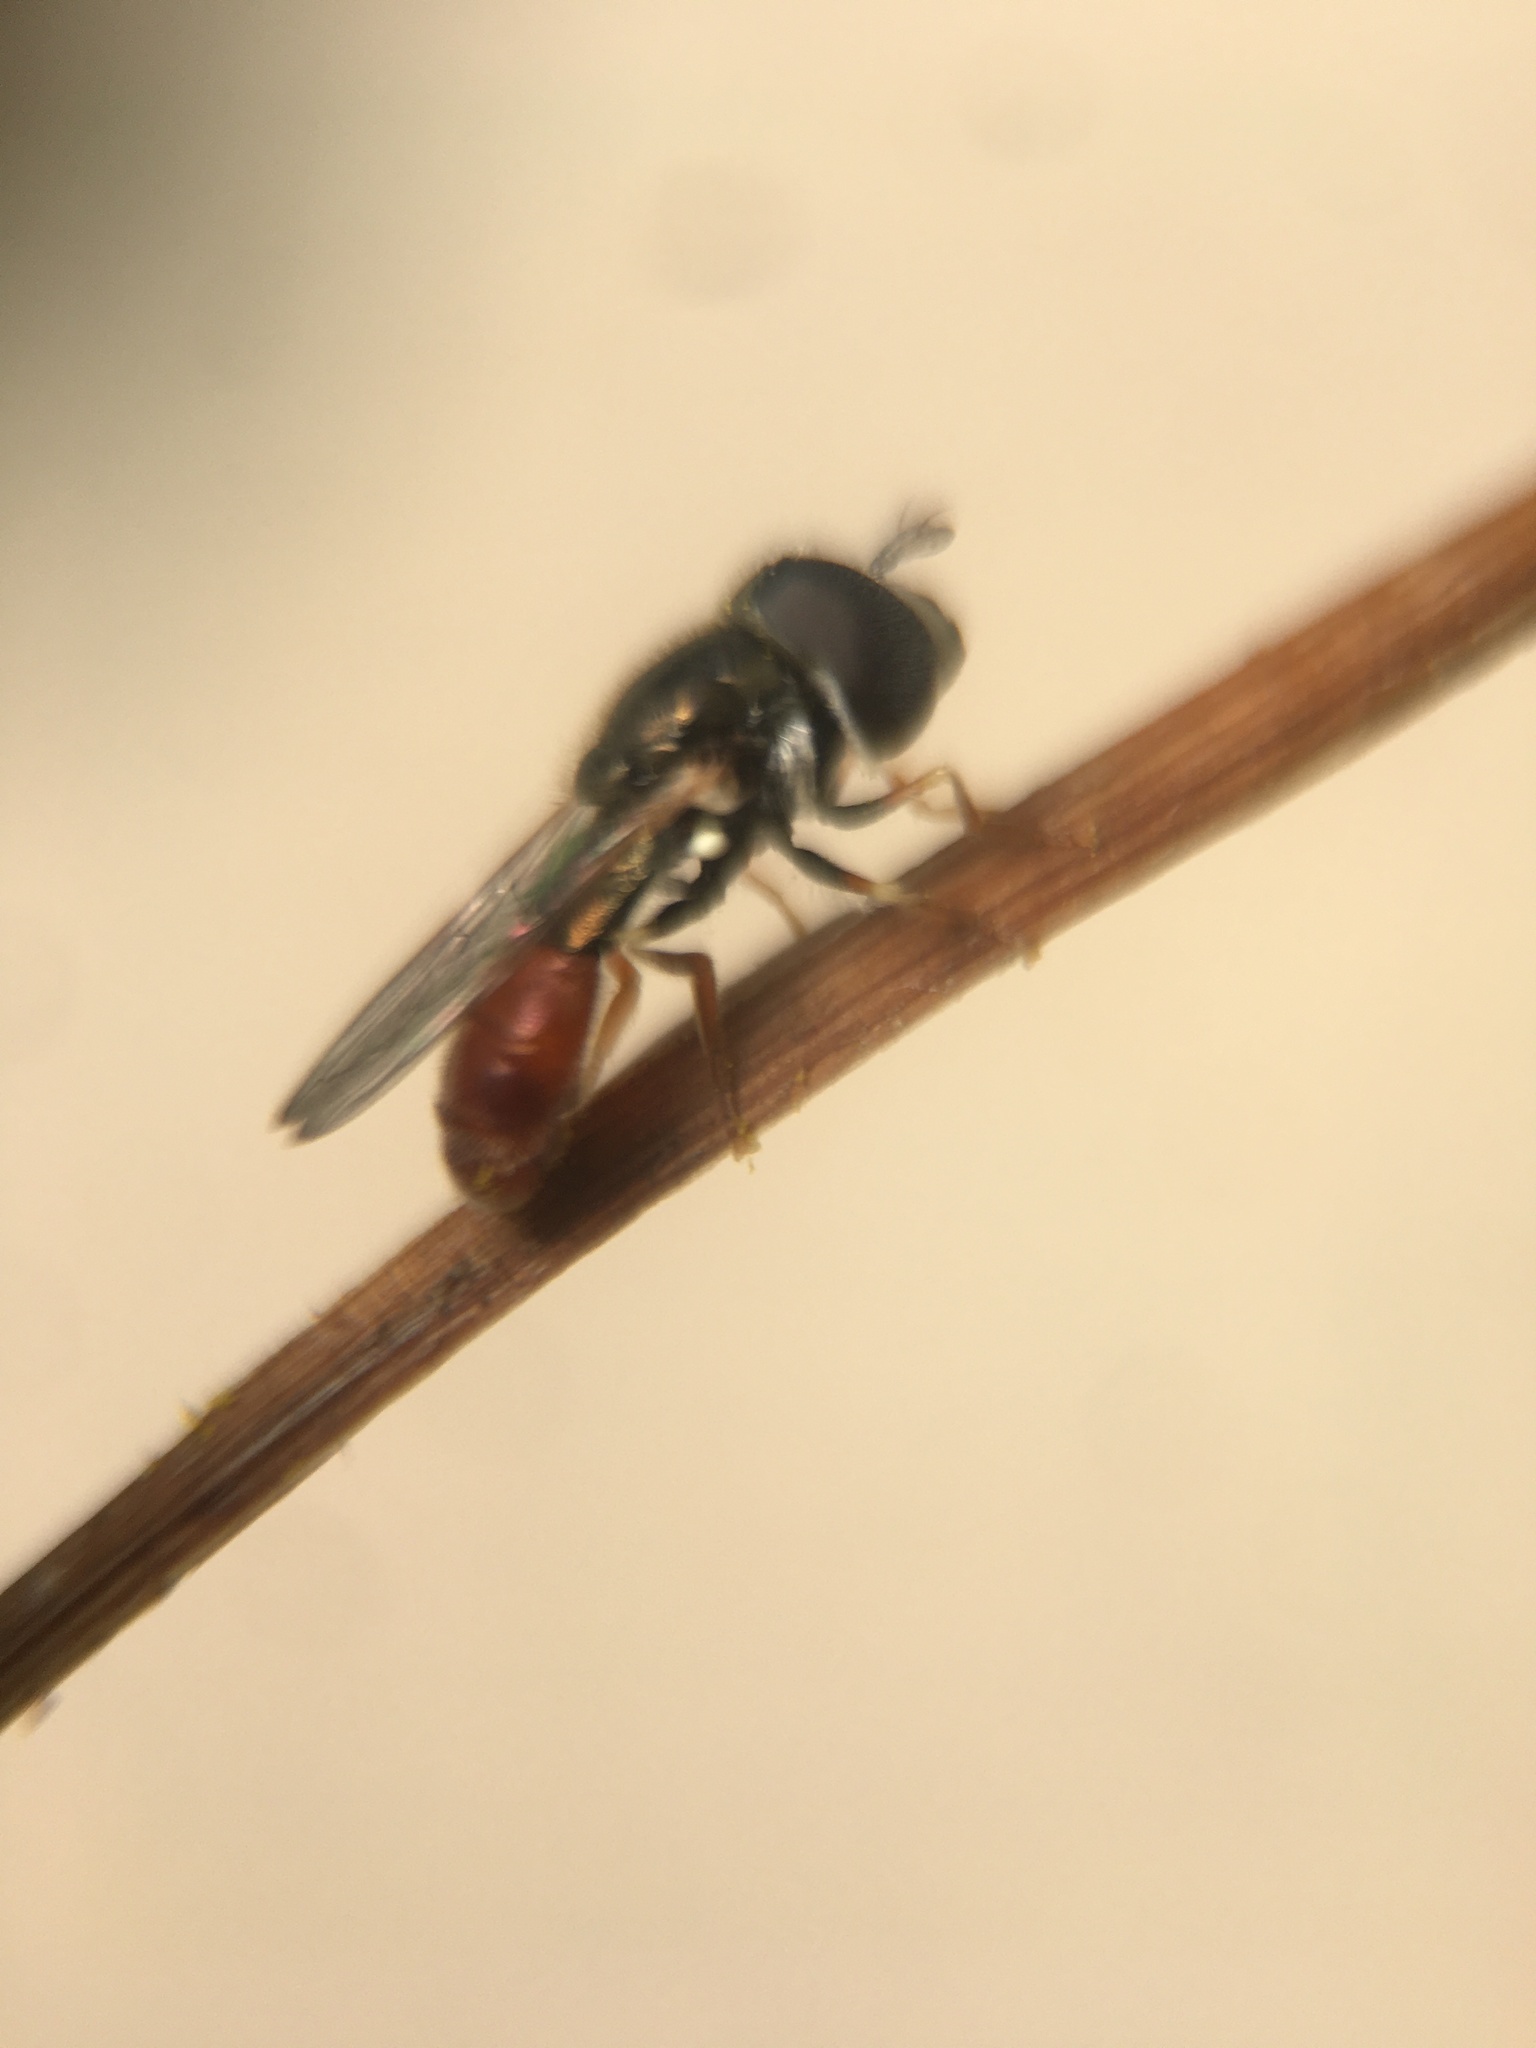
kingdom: Animalia
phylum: Arthropoda
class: Insecta
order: Diptera
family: Syrphidae
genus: Paragus
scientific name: Paragus haemorrhous
